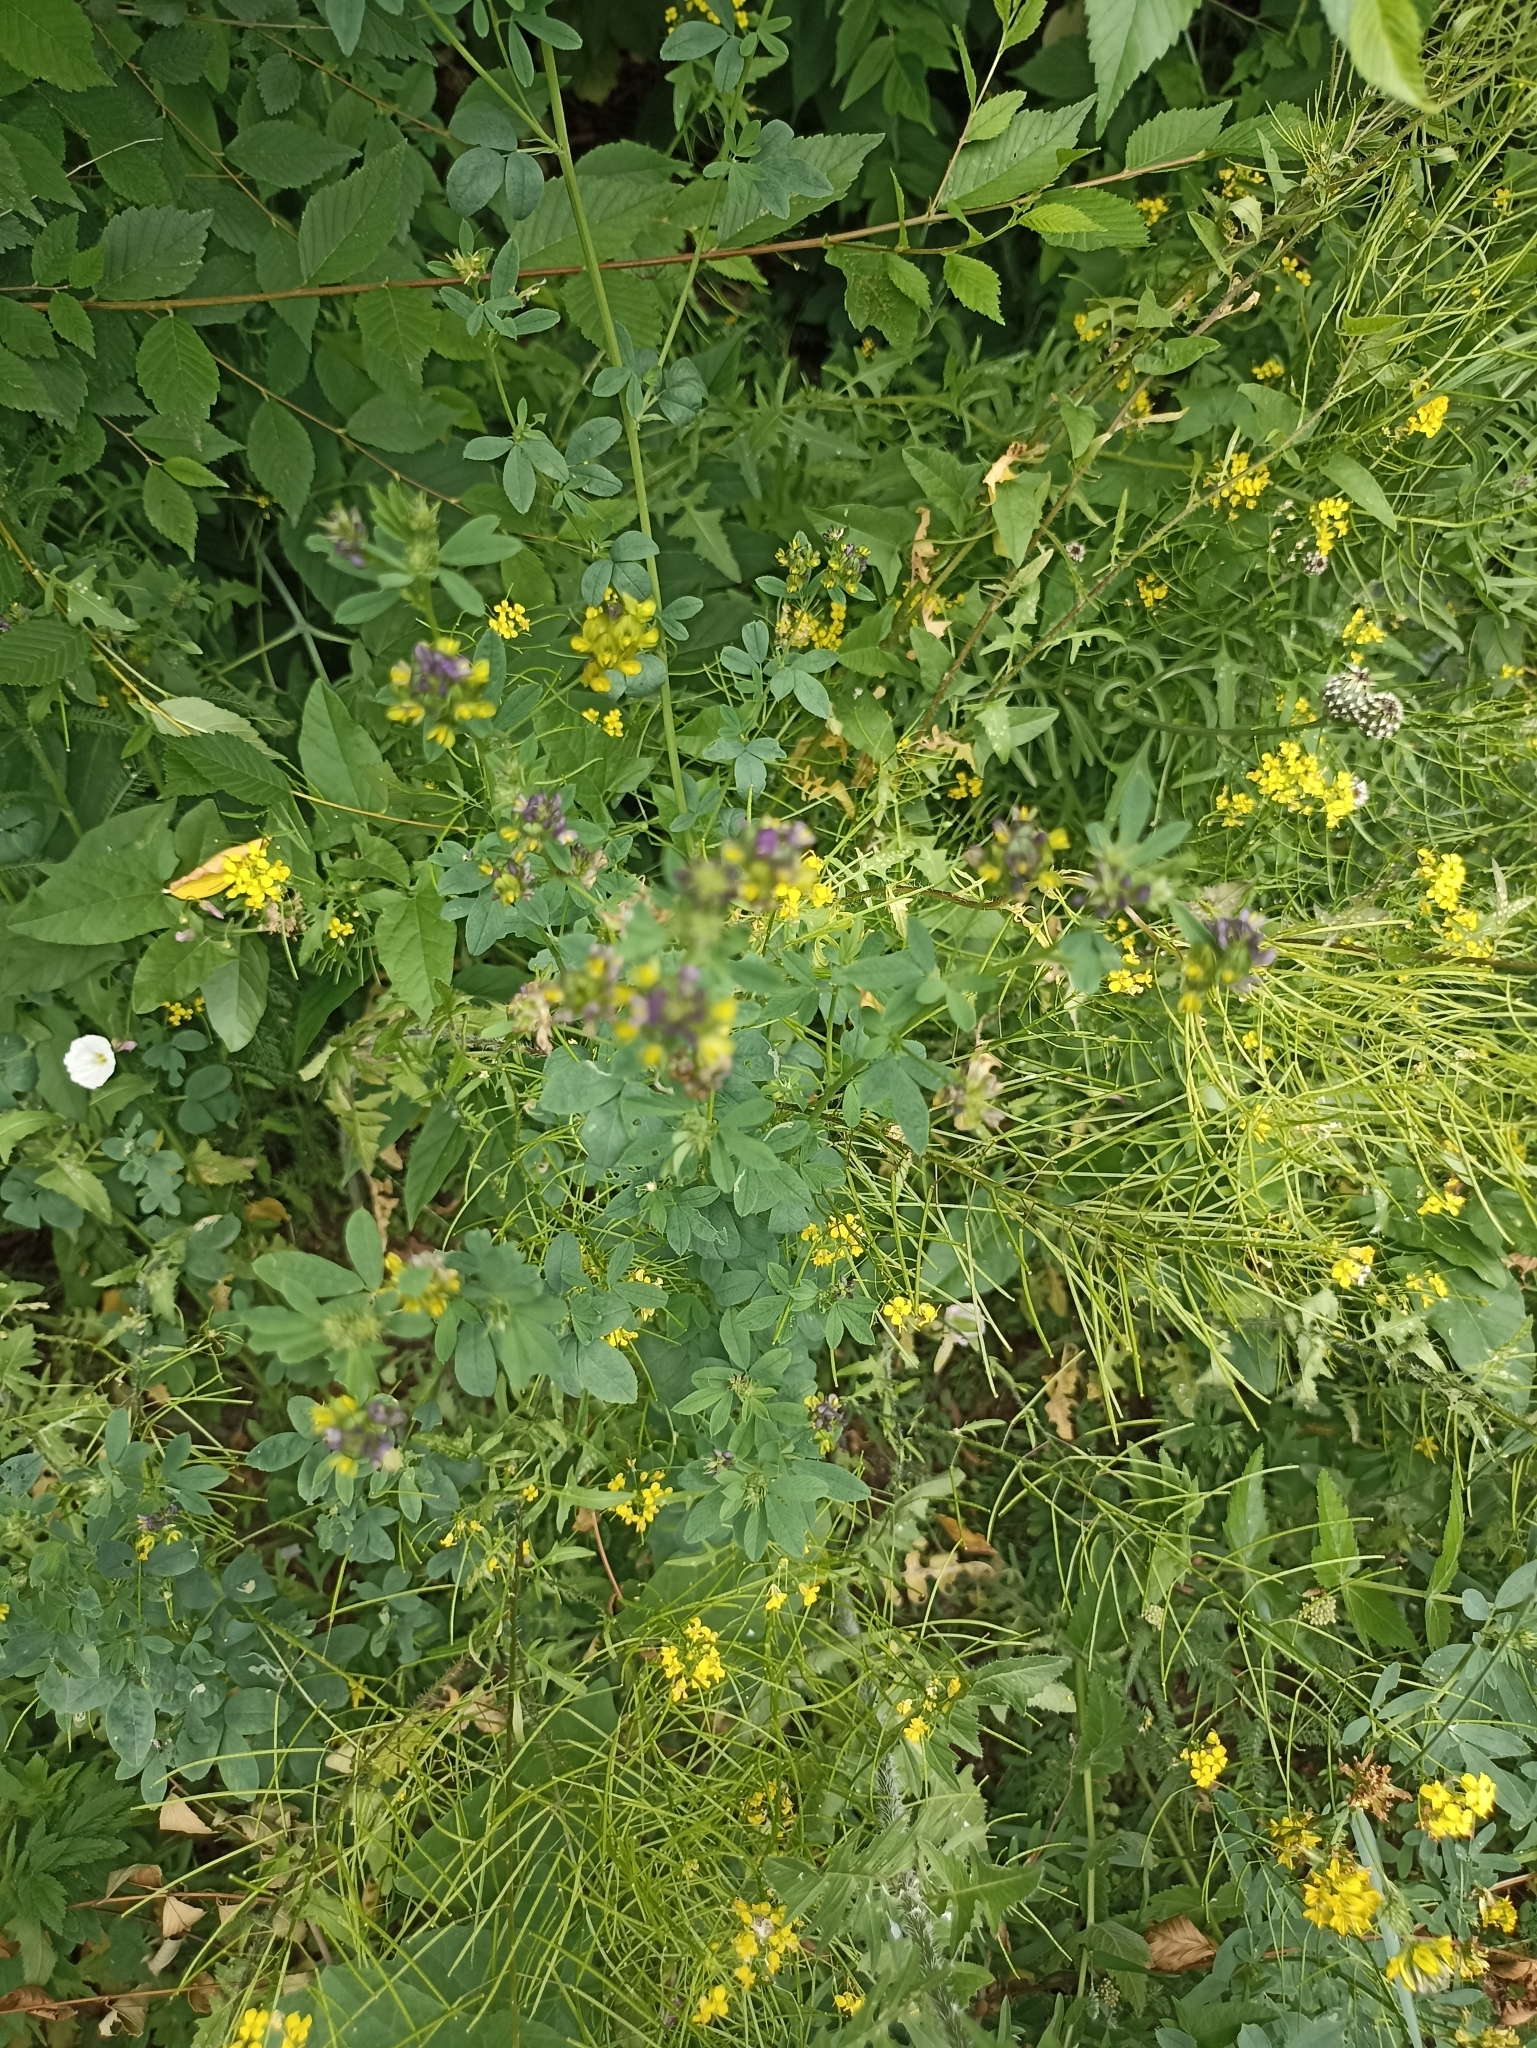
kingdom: Plantae
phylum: Tracheophyta
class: Magnoliopsida
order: Fabales
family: Fabaceae
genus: Medicago
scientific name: Medicago varia
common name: Sand lucerne
